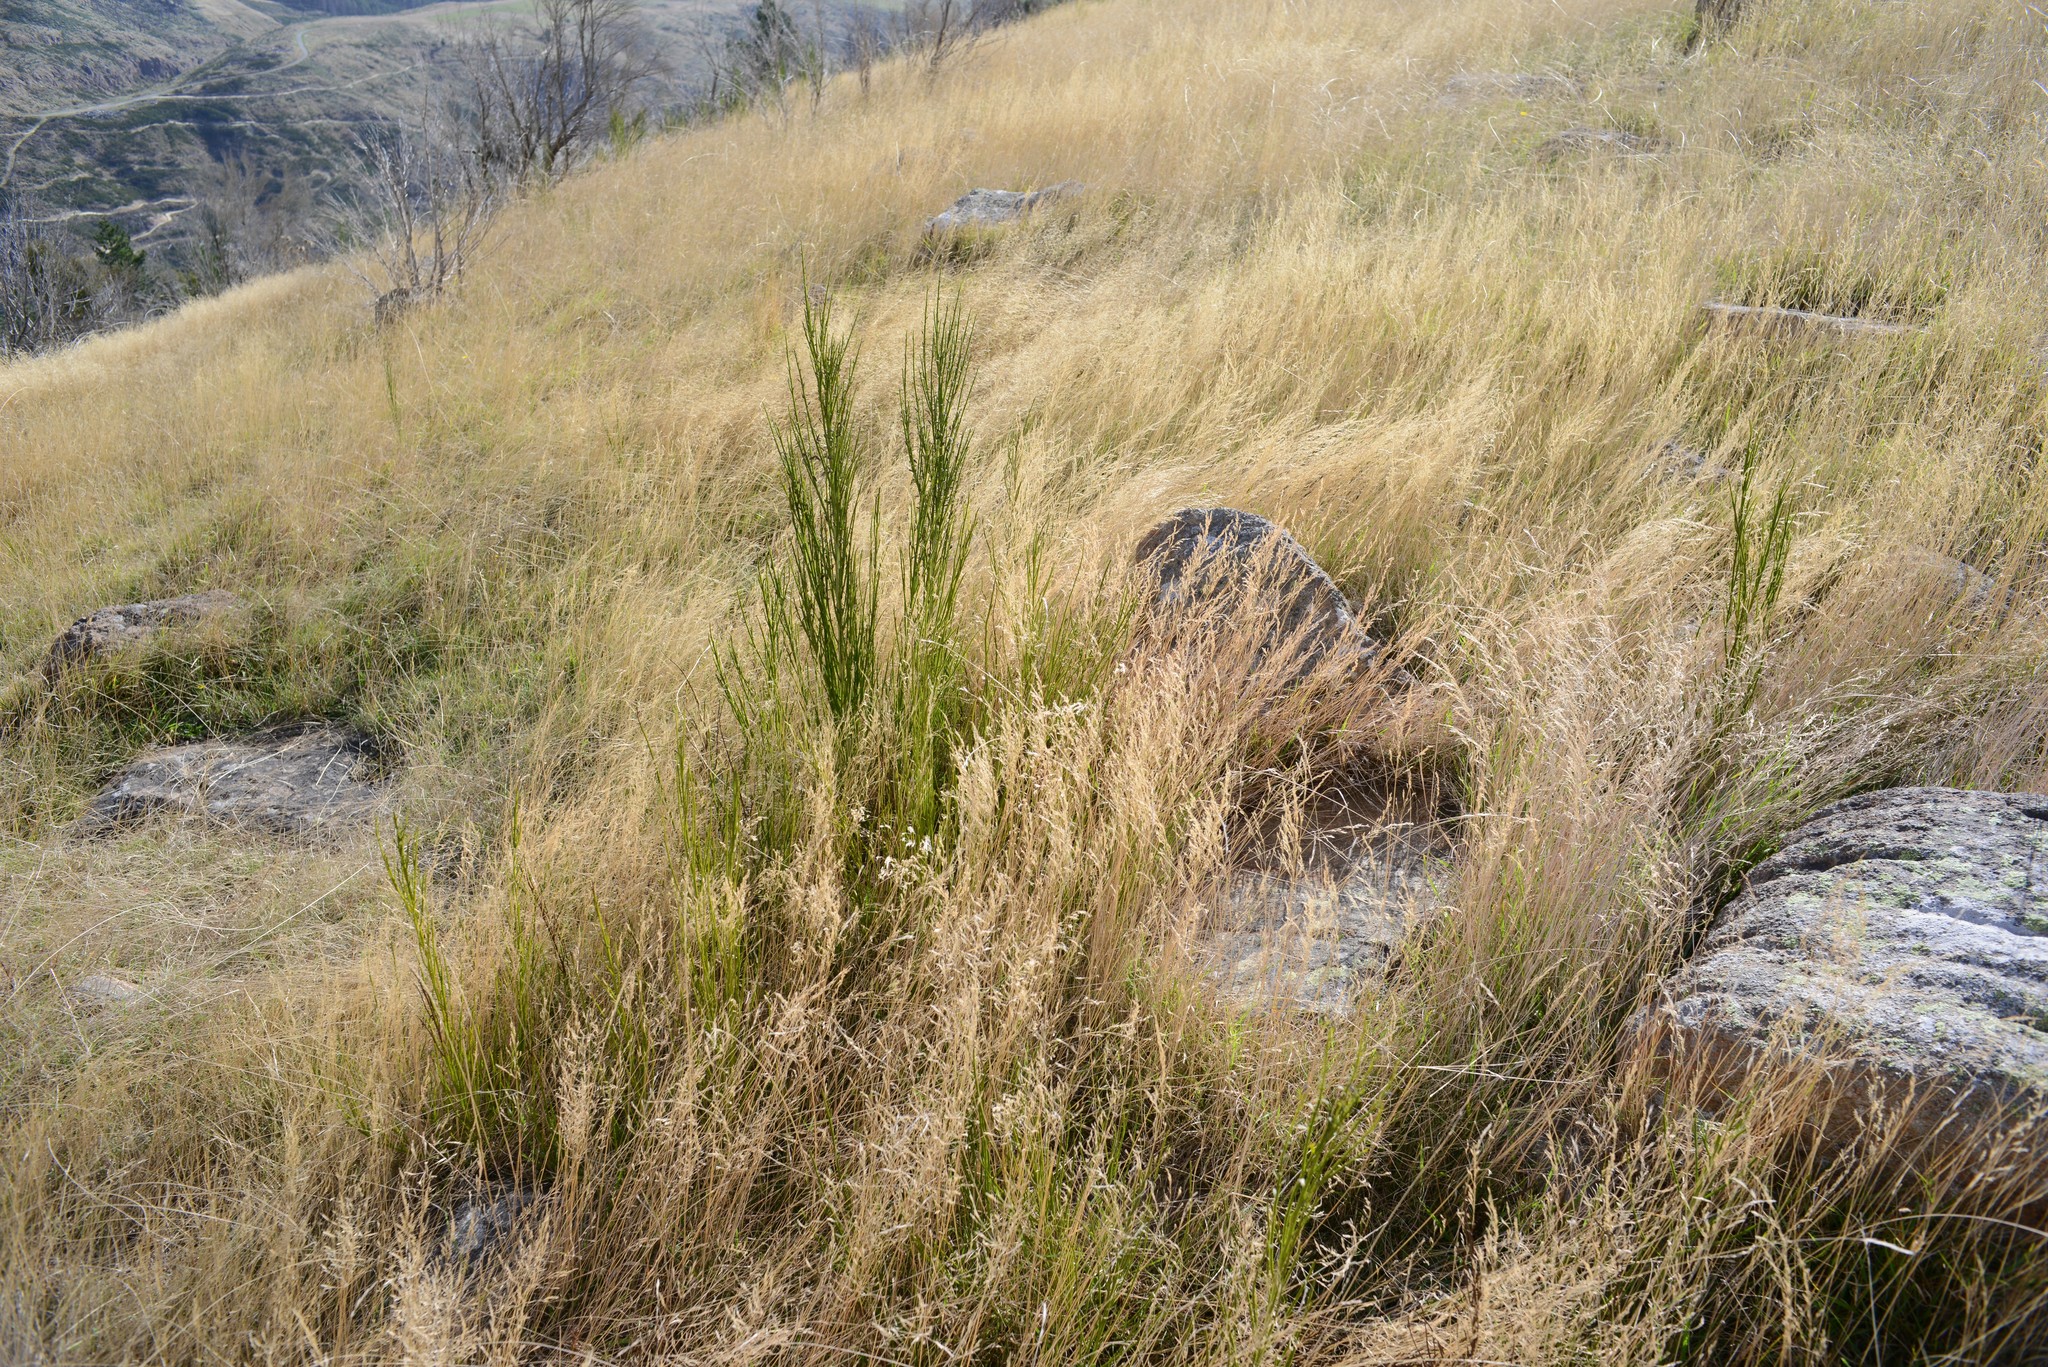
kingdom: Plantae
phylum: Tracheophyta
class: Magnoliopsida
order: Fabales
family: Fabaceae
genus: Cytisus
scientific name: Cytisus scoparius
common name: Scotch broom
